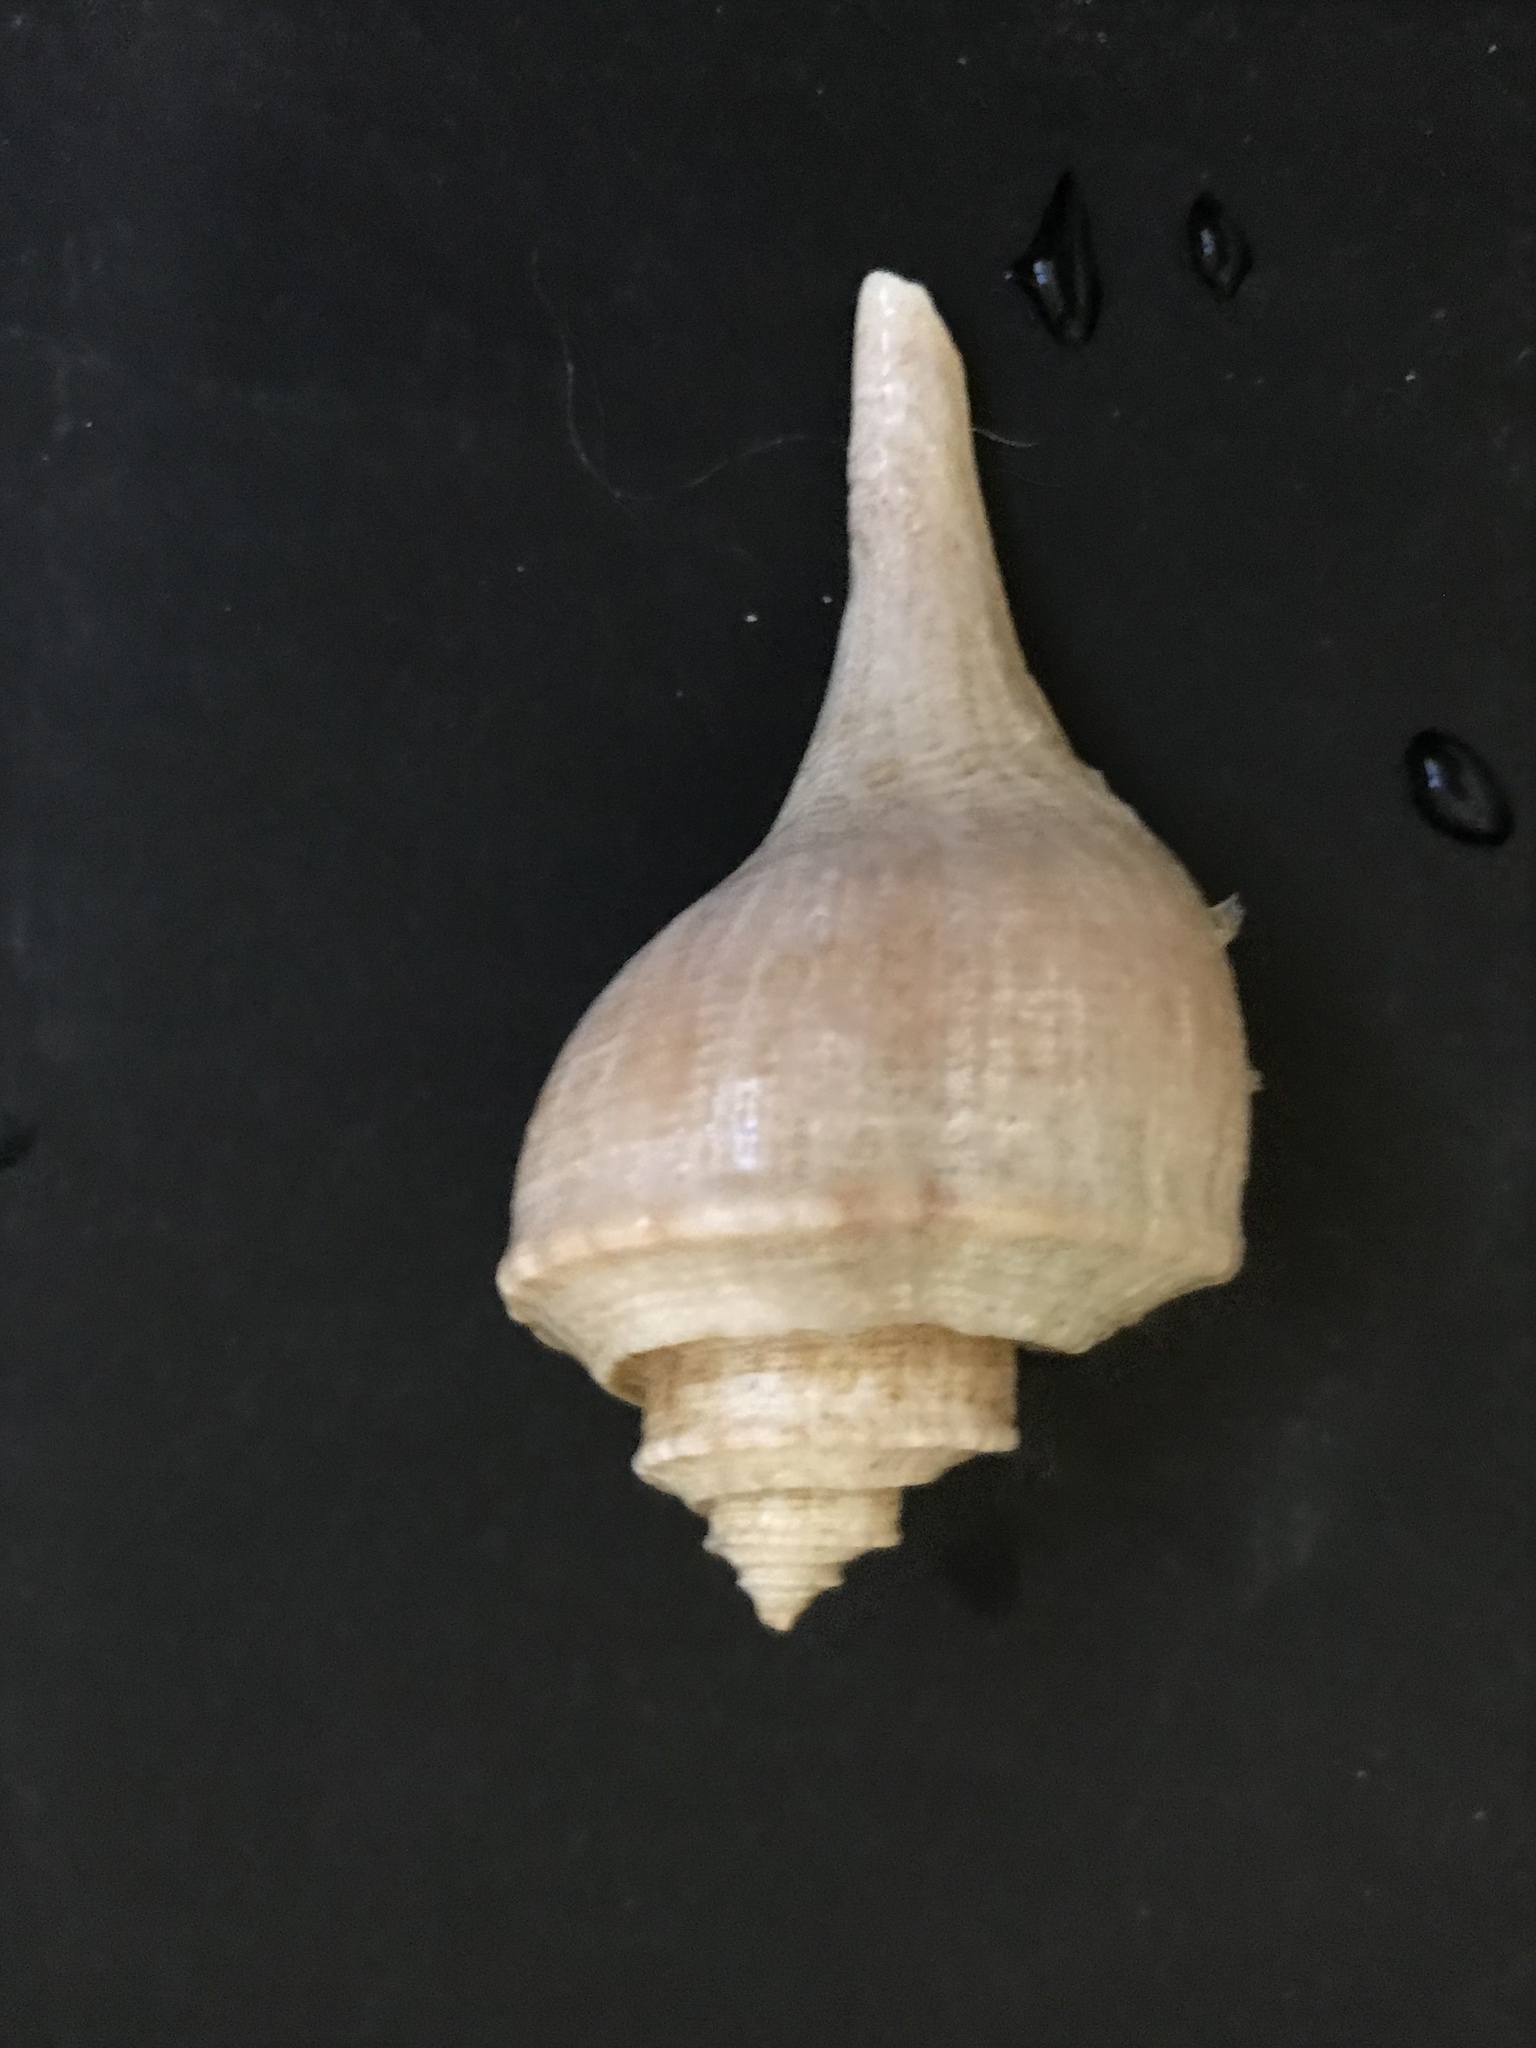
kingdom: Animalia
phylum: Mollusca
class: Gastropoda
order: Neogastropoda
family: Busyconidae
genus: Busycotypus
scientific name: Busycotypus canaliculatus
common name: Channeled whelk
